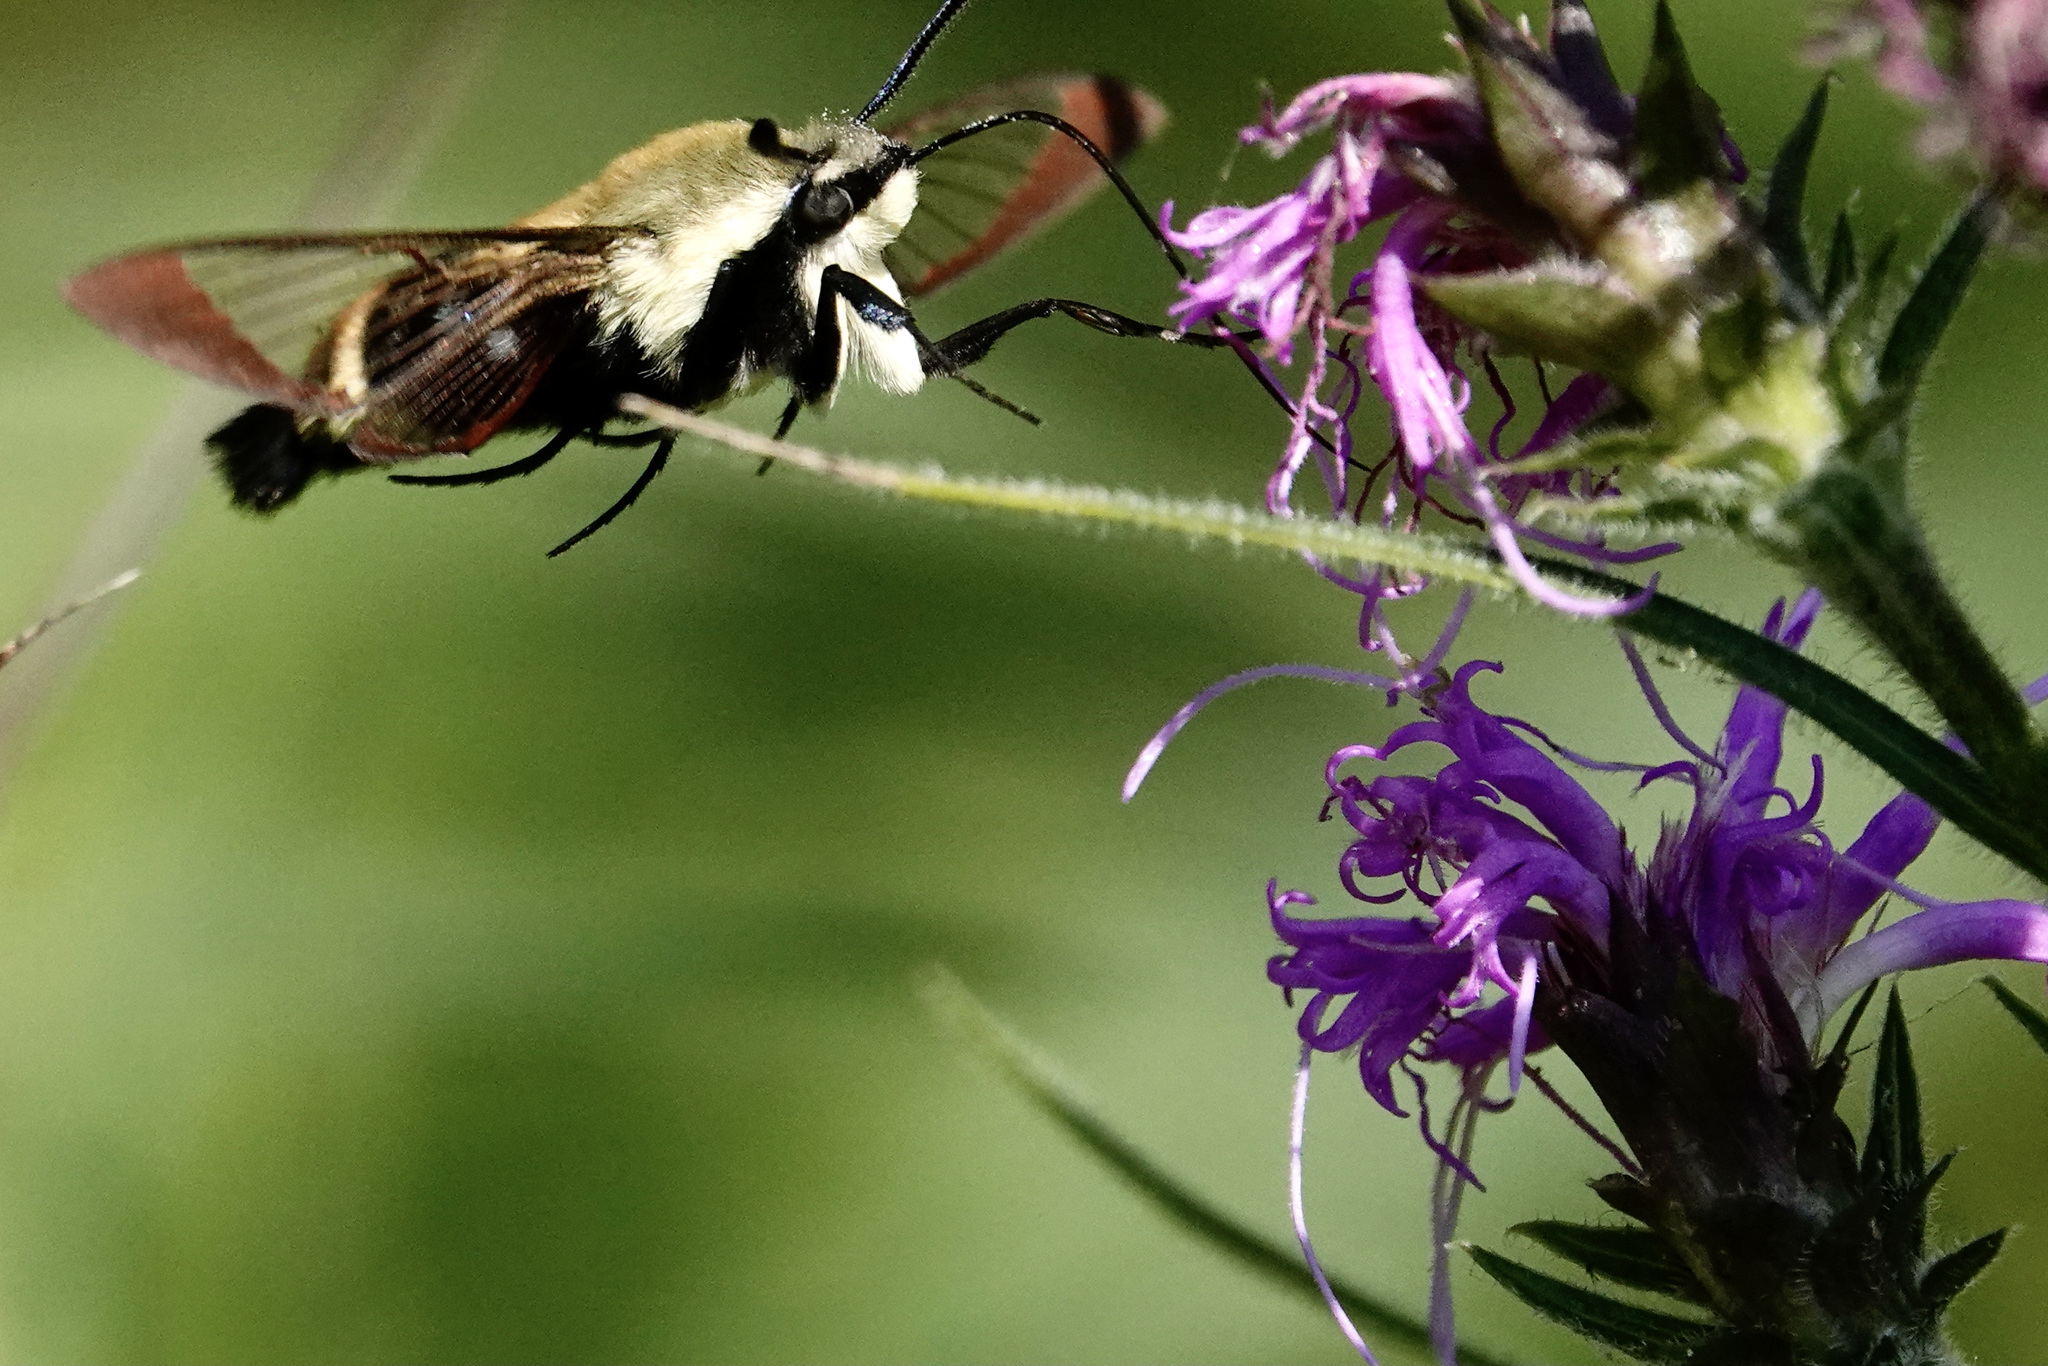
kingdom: Animalia
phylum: Arthropoda
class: Insecta
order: Lepidoptera
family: Sphingidae
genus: Hemaris
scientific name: Hemaris diffinis
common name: Bumblebee moth
